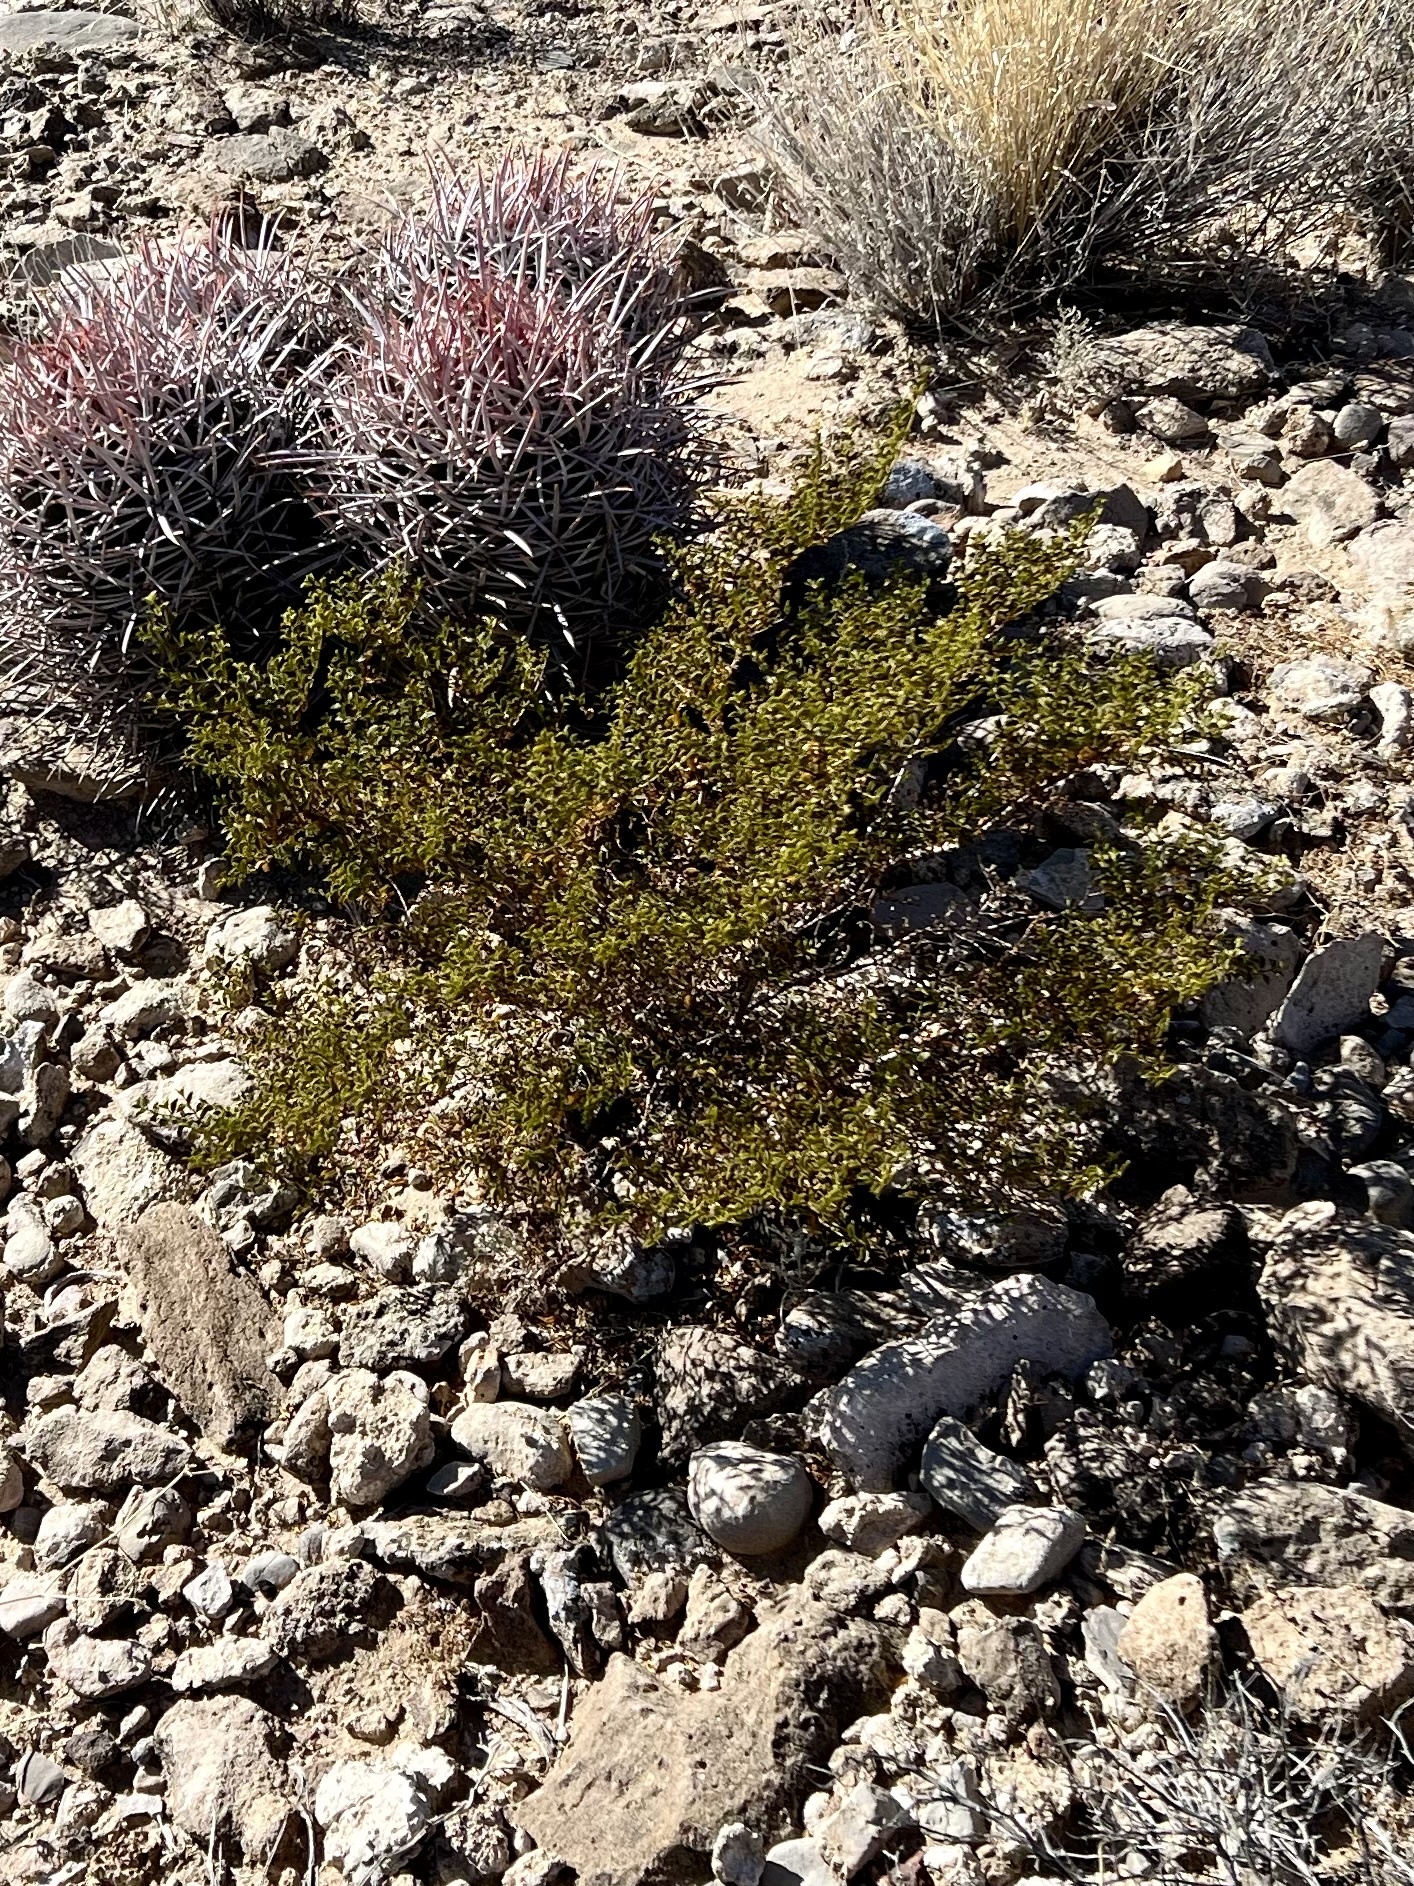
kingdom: Plantae
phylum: Tracheophyta
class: Magnoliopsida
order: Zygophyllales
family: Zygophyllaceae
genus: Larrea
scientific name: Larrea tridentata
